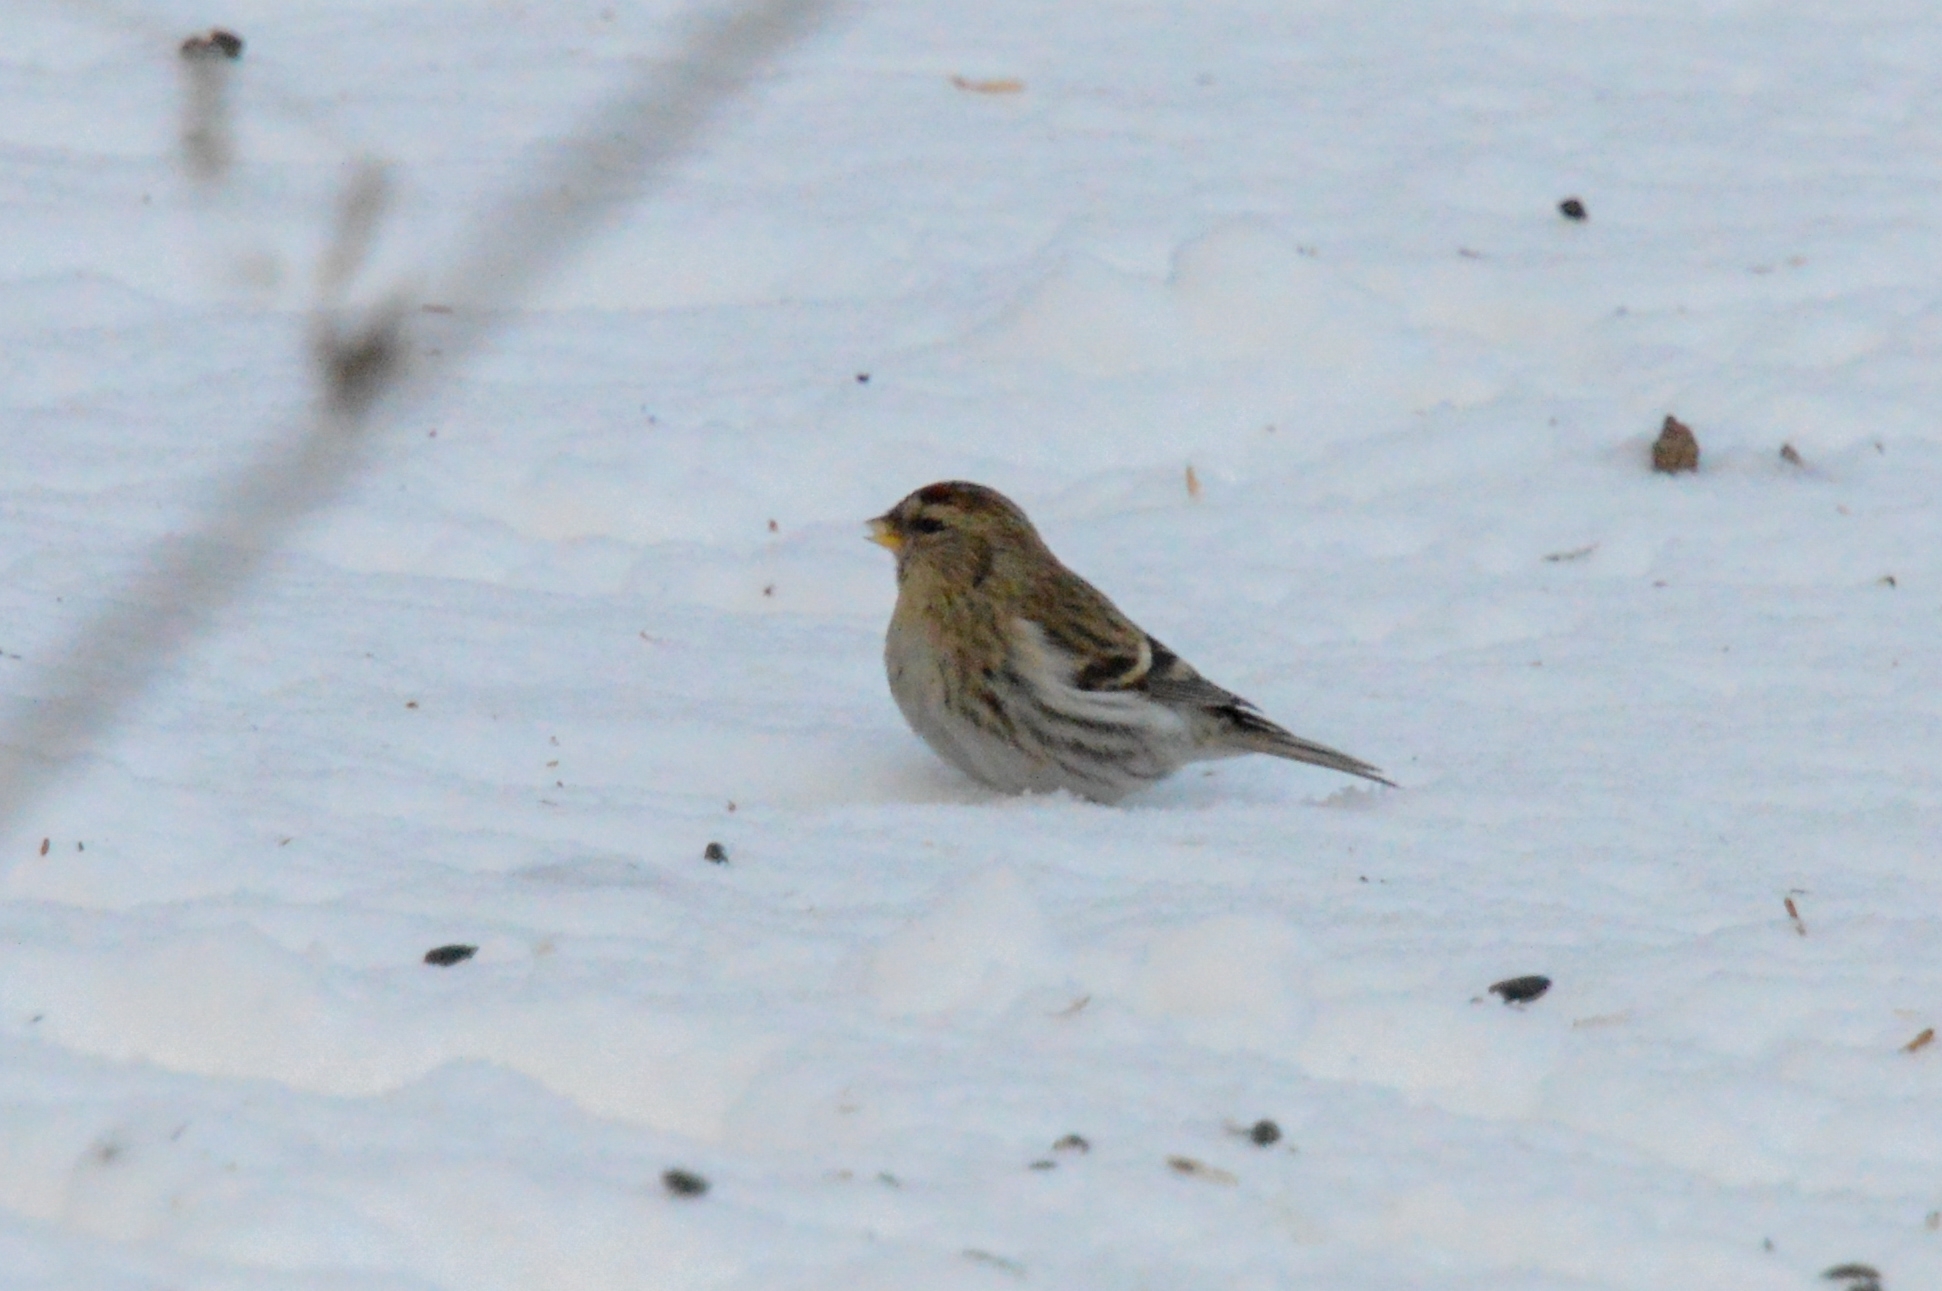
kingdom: Animalia
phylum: Chordata
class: Aves
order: Passeriformes
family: Fringillidae
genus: Acanthis
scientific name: Acanthis flammea
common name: Common redpoll
